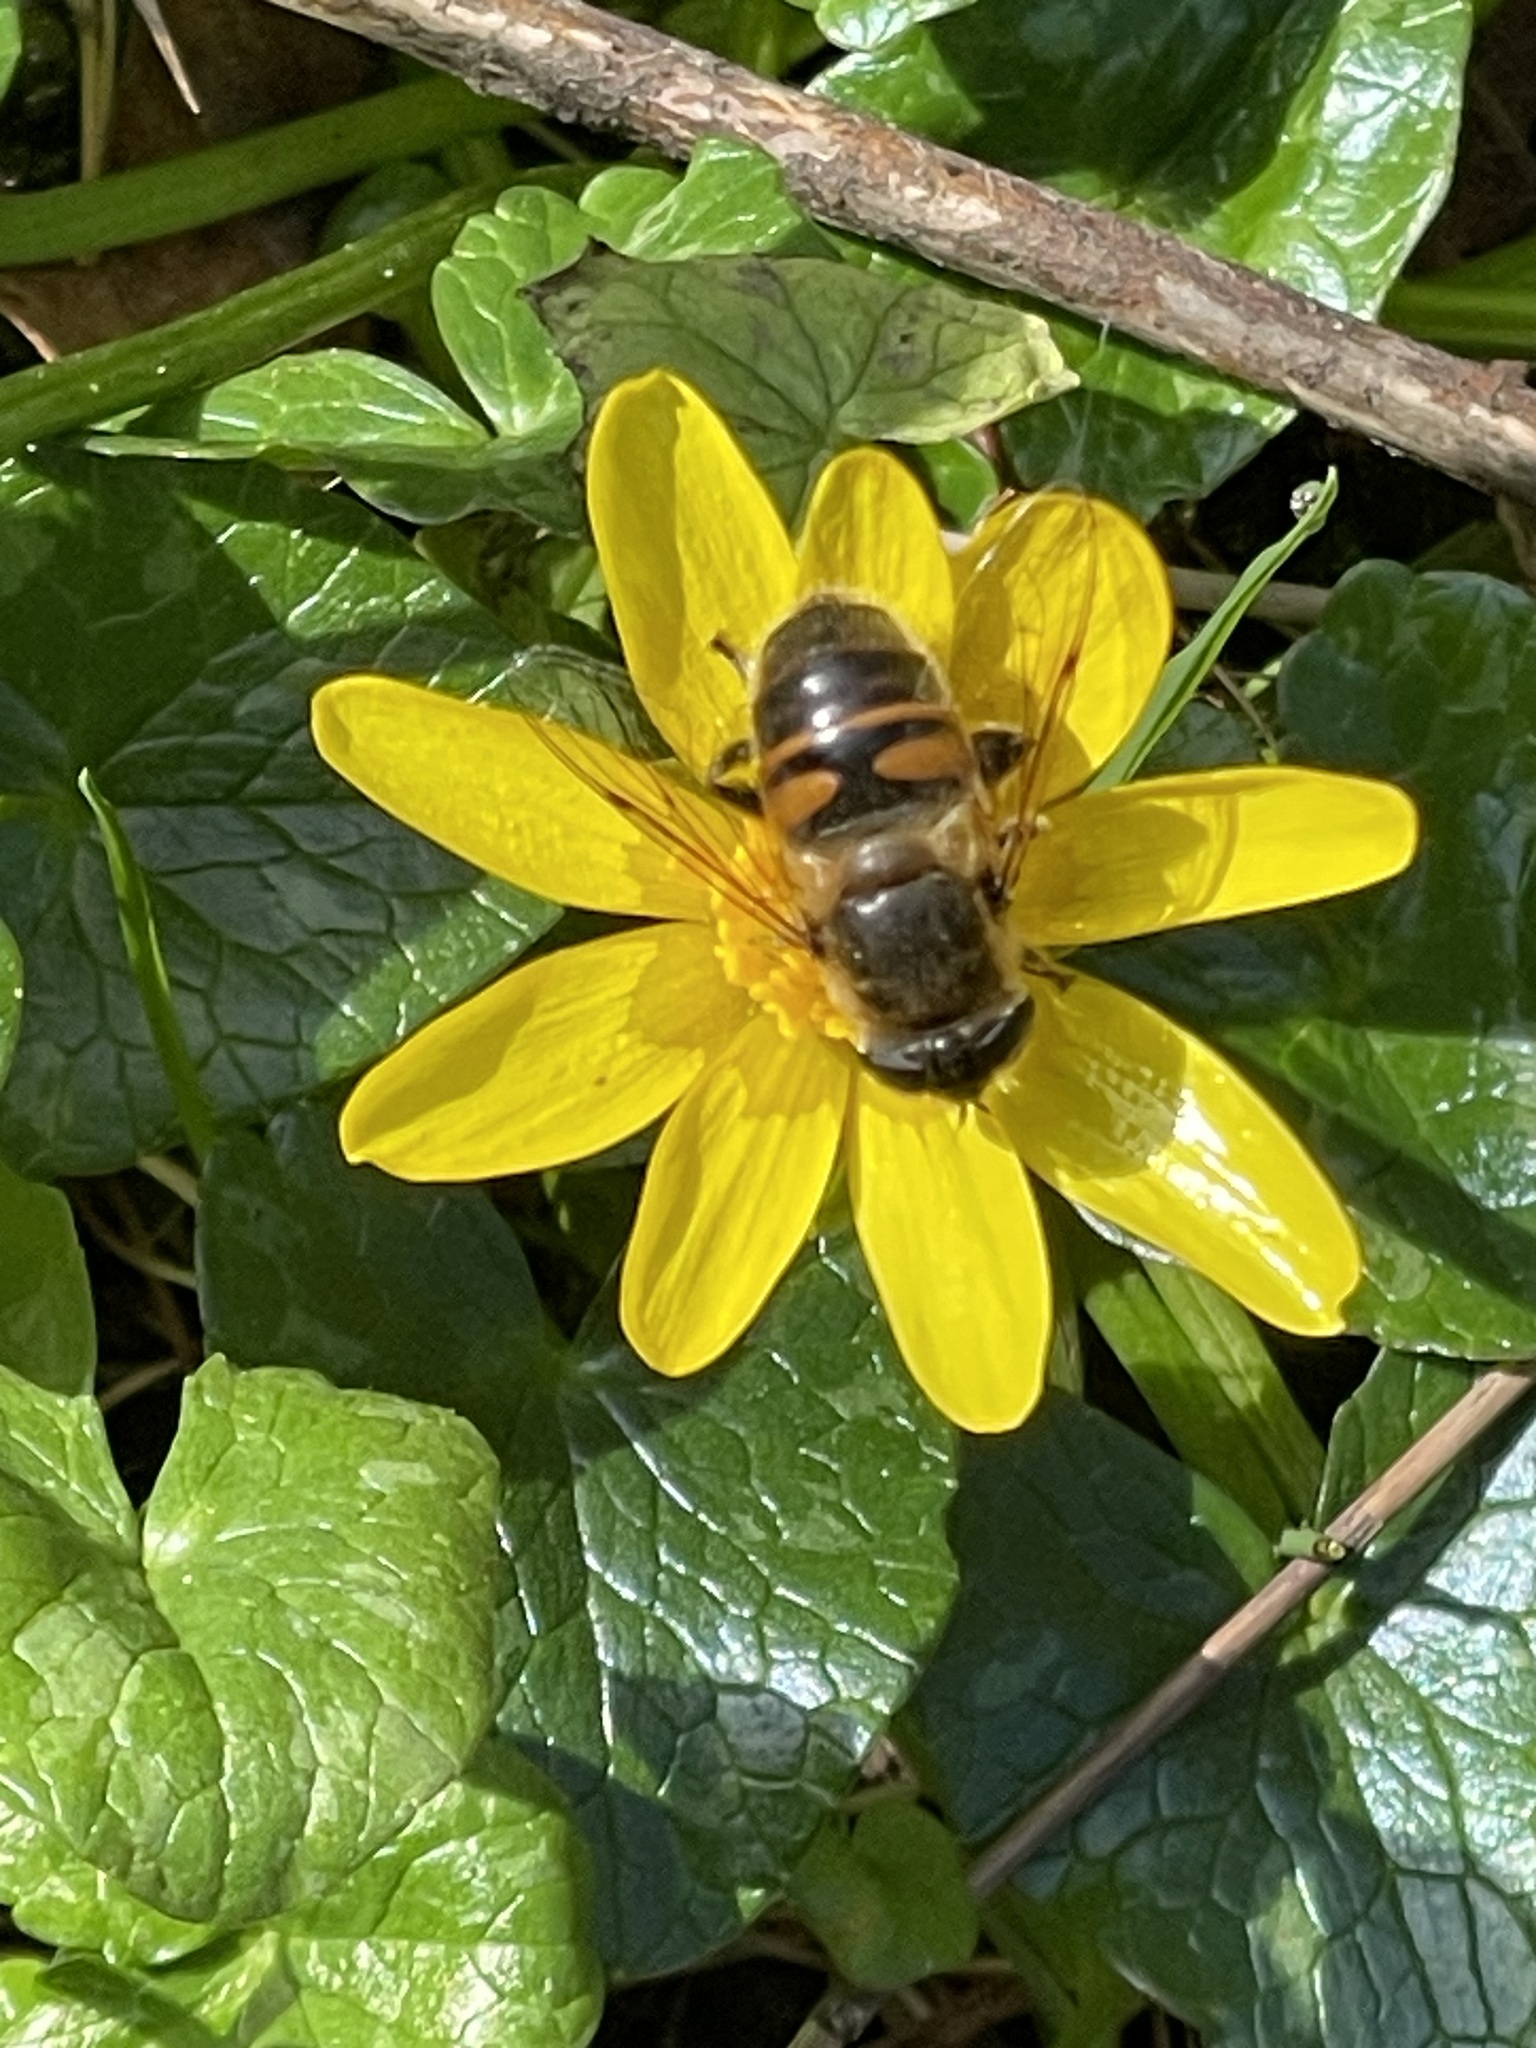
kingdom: Animalia
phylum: Arthropoda
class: Insecta
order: Diptera
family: Syrphidae
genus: Eristalis
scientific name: Eristalis tenax
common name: Drone fly
